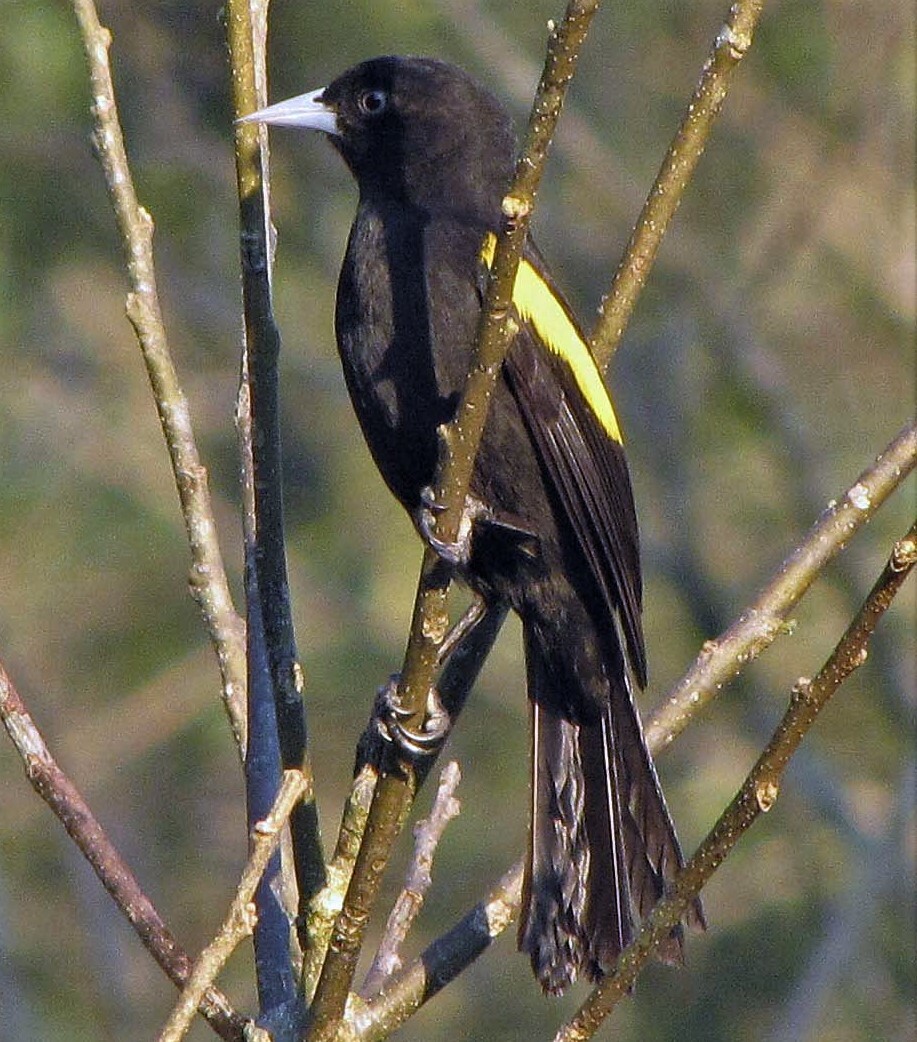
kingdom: Animalia
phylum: Chordata
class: Aves
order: Passeriformes
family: Icteridae
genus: Cacicus
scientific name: Cacicus chrysopterus
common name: Golden-winged cacique
